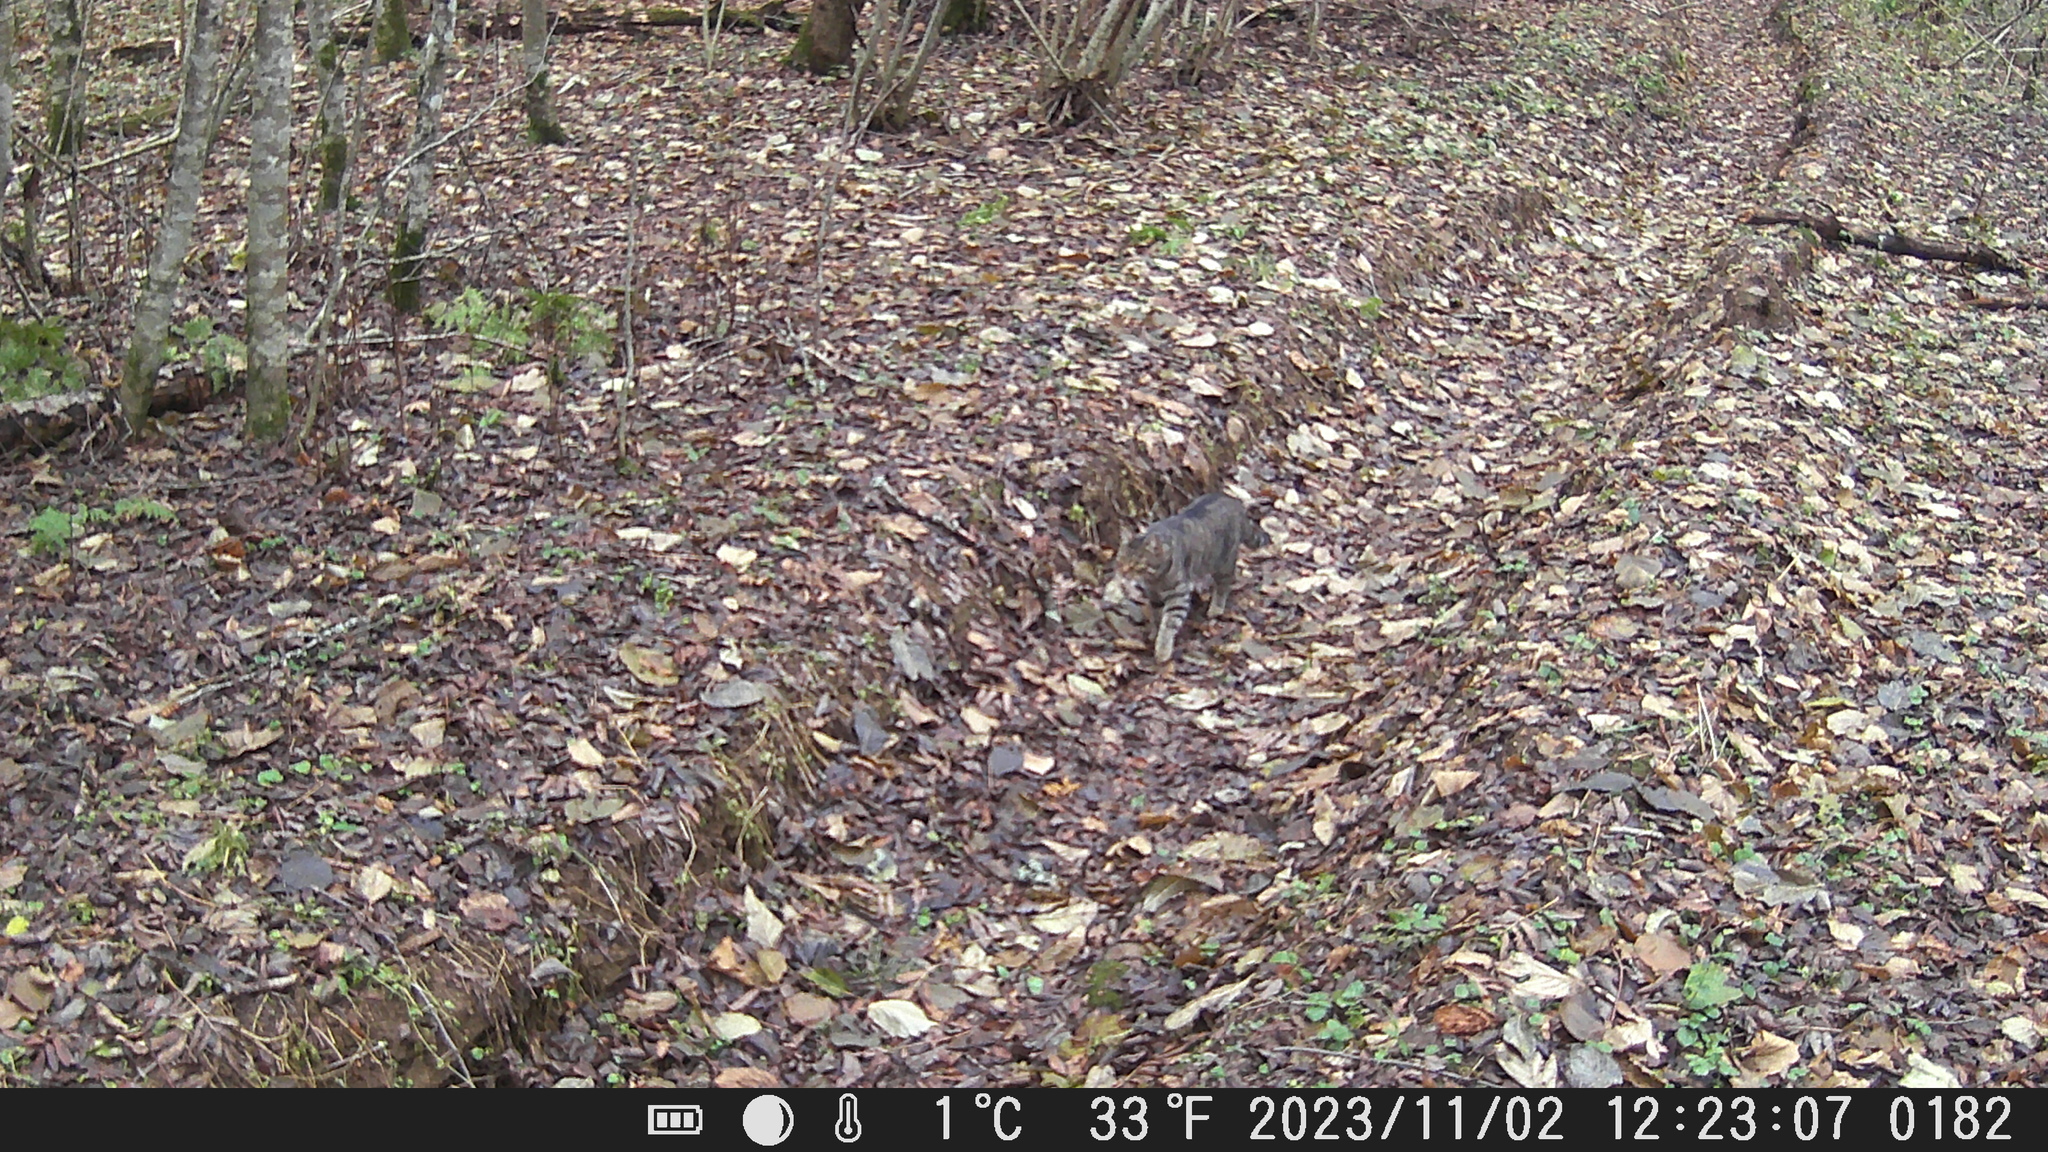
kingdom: Animalia
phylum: Chordata
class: Mammalia
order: Carnivora
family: Felidae
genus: Felis
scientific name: Felis catus
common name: Domestic cat
